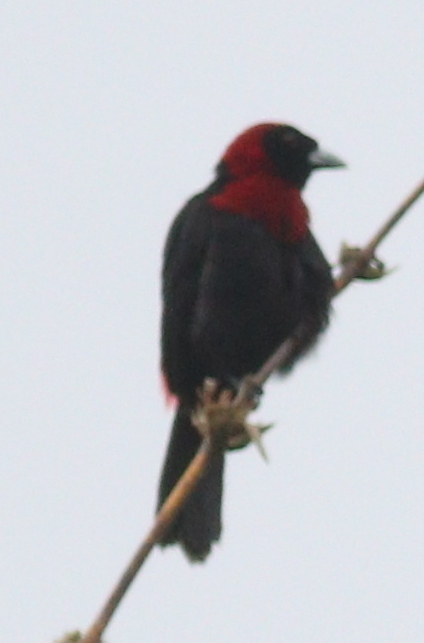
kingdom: Animalia
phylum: Chordata
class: Aves
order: Passeriformes
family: Thraupidae
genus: Ramphocelus
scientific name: Ramphocelus sanguinolentus
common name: Crimson-collared tanager
